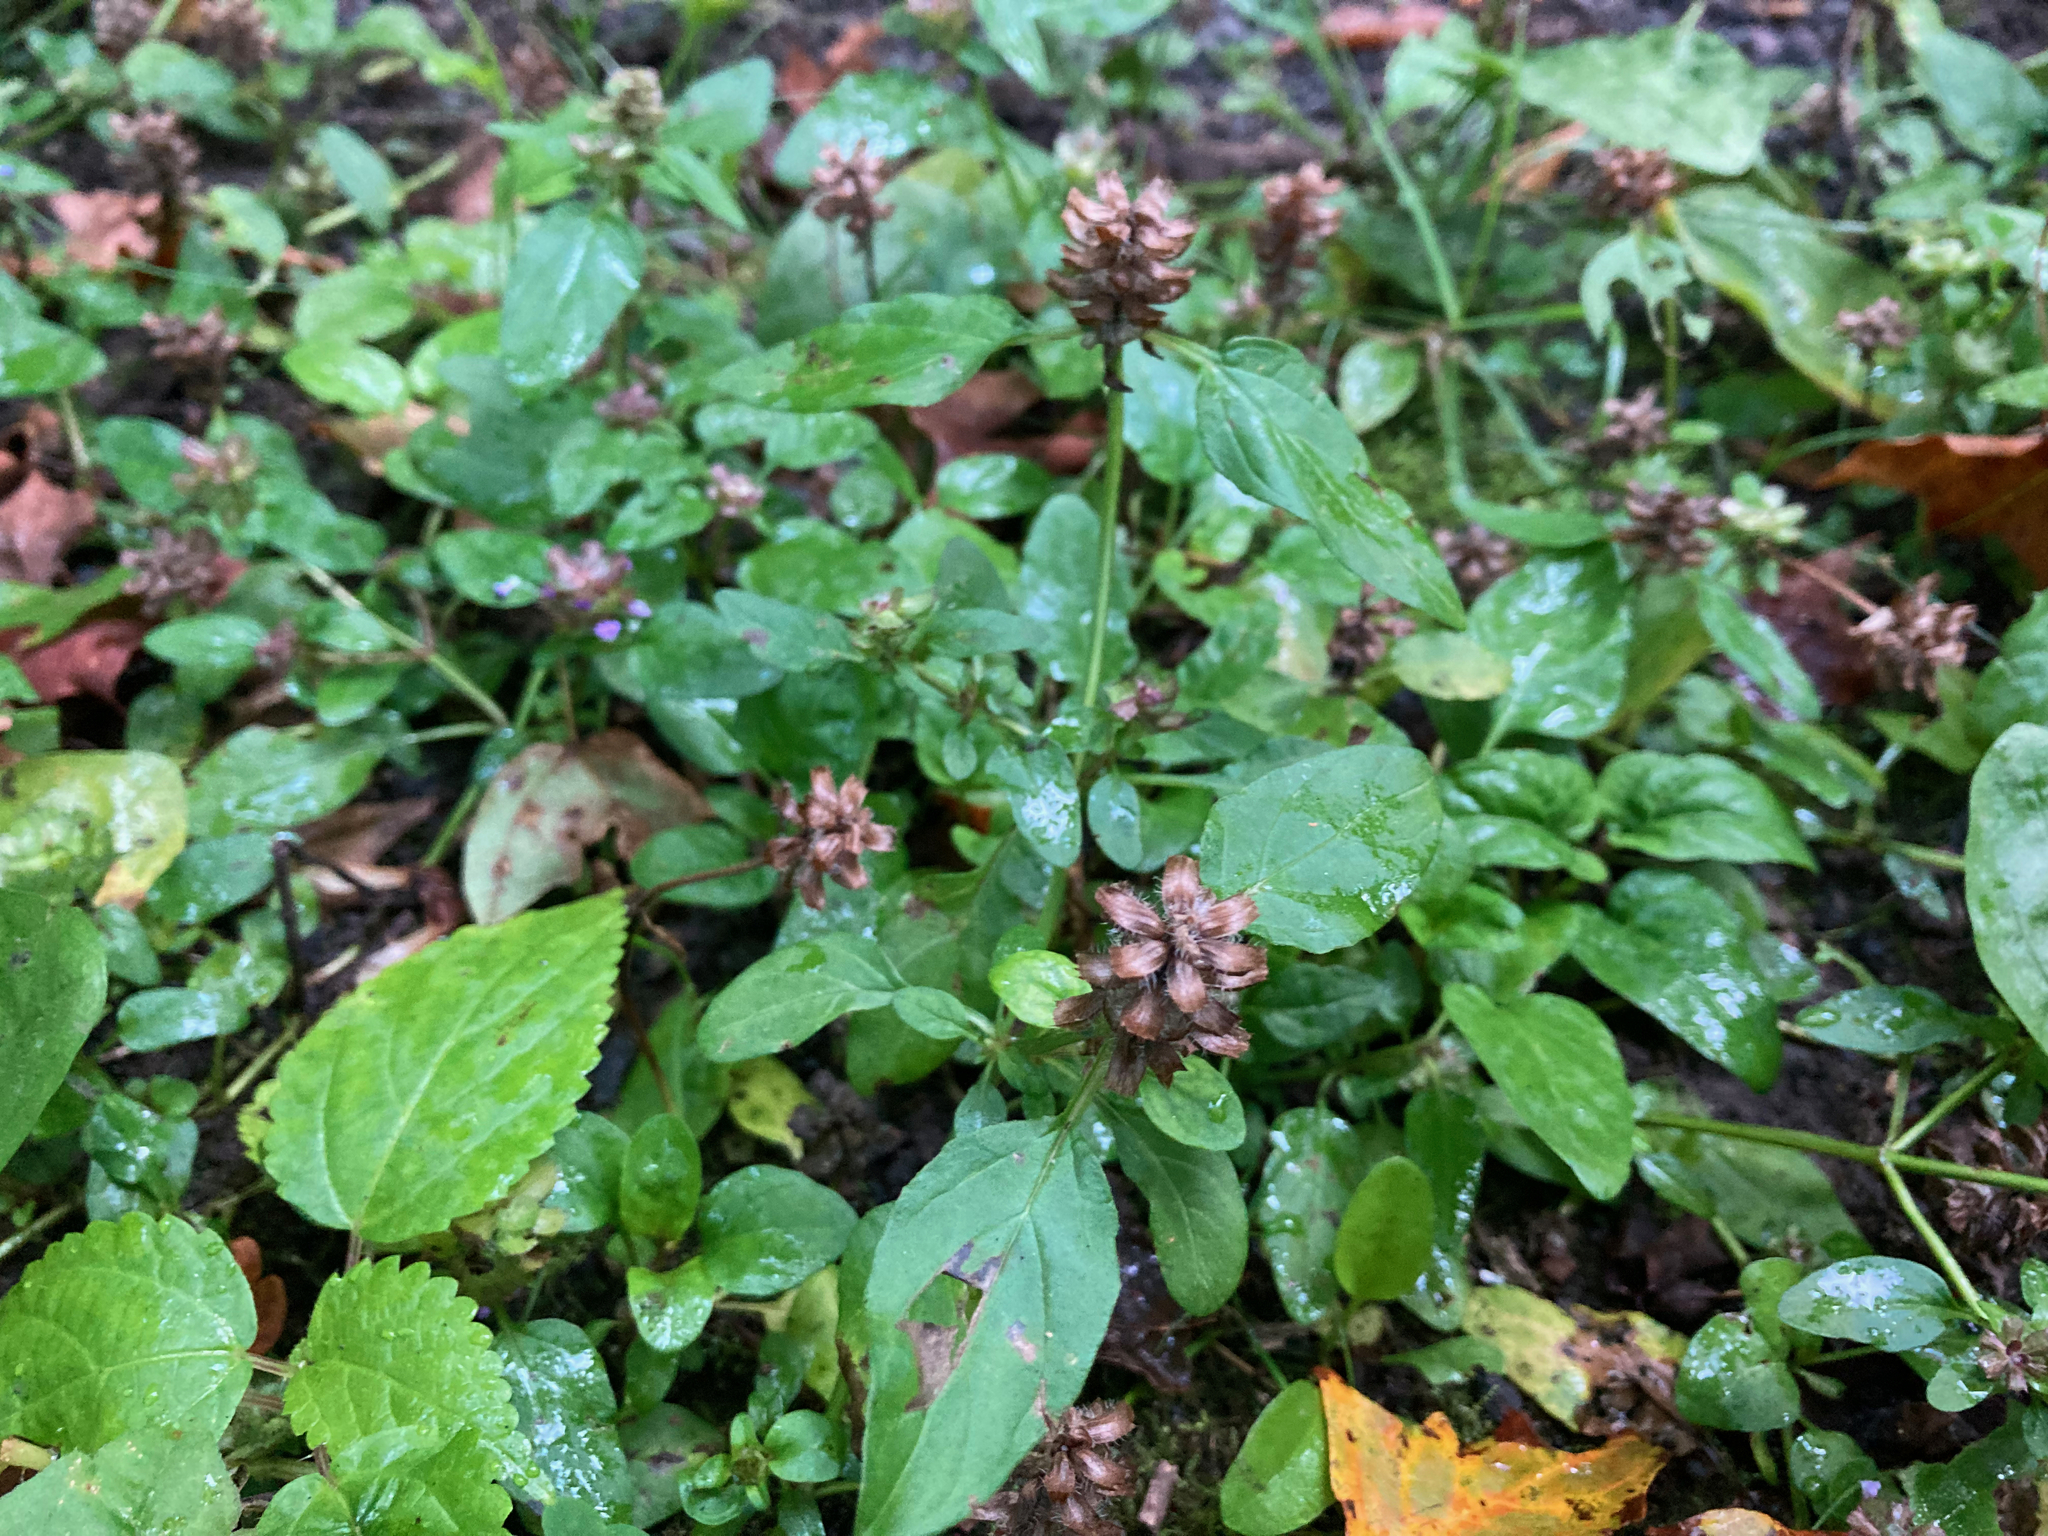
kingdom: Plantae
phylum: Tracheophyta
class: Magnoliopsida
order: Lamiales
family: Lamiaceae
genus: Prunella
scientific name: Prunella vulgaris
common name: Heal-all
